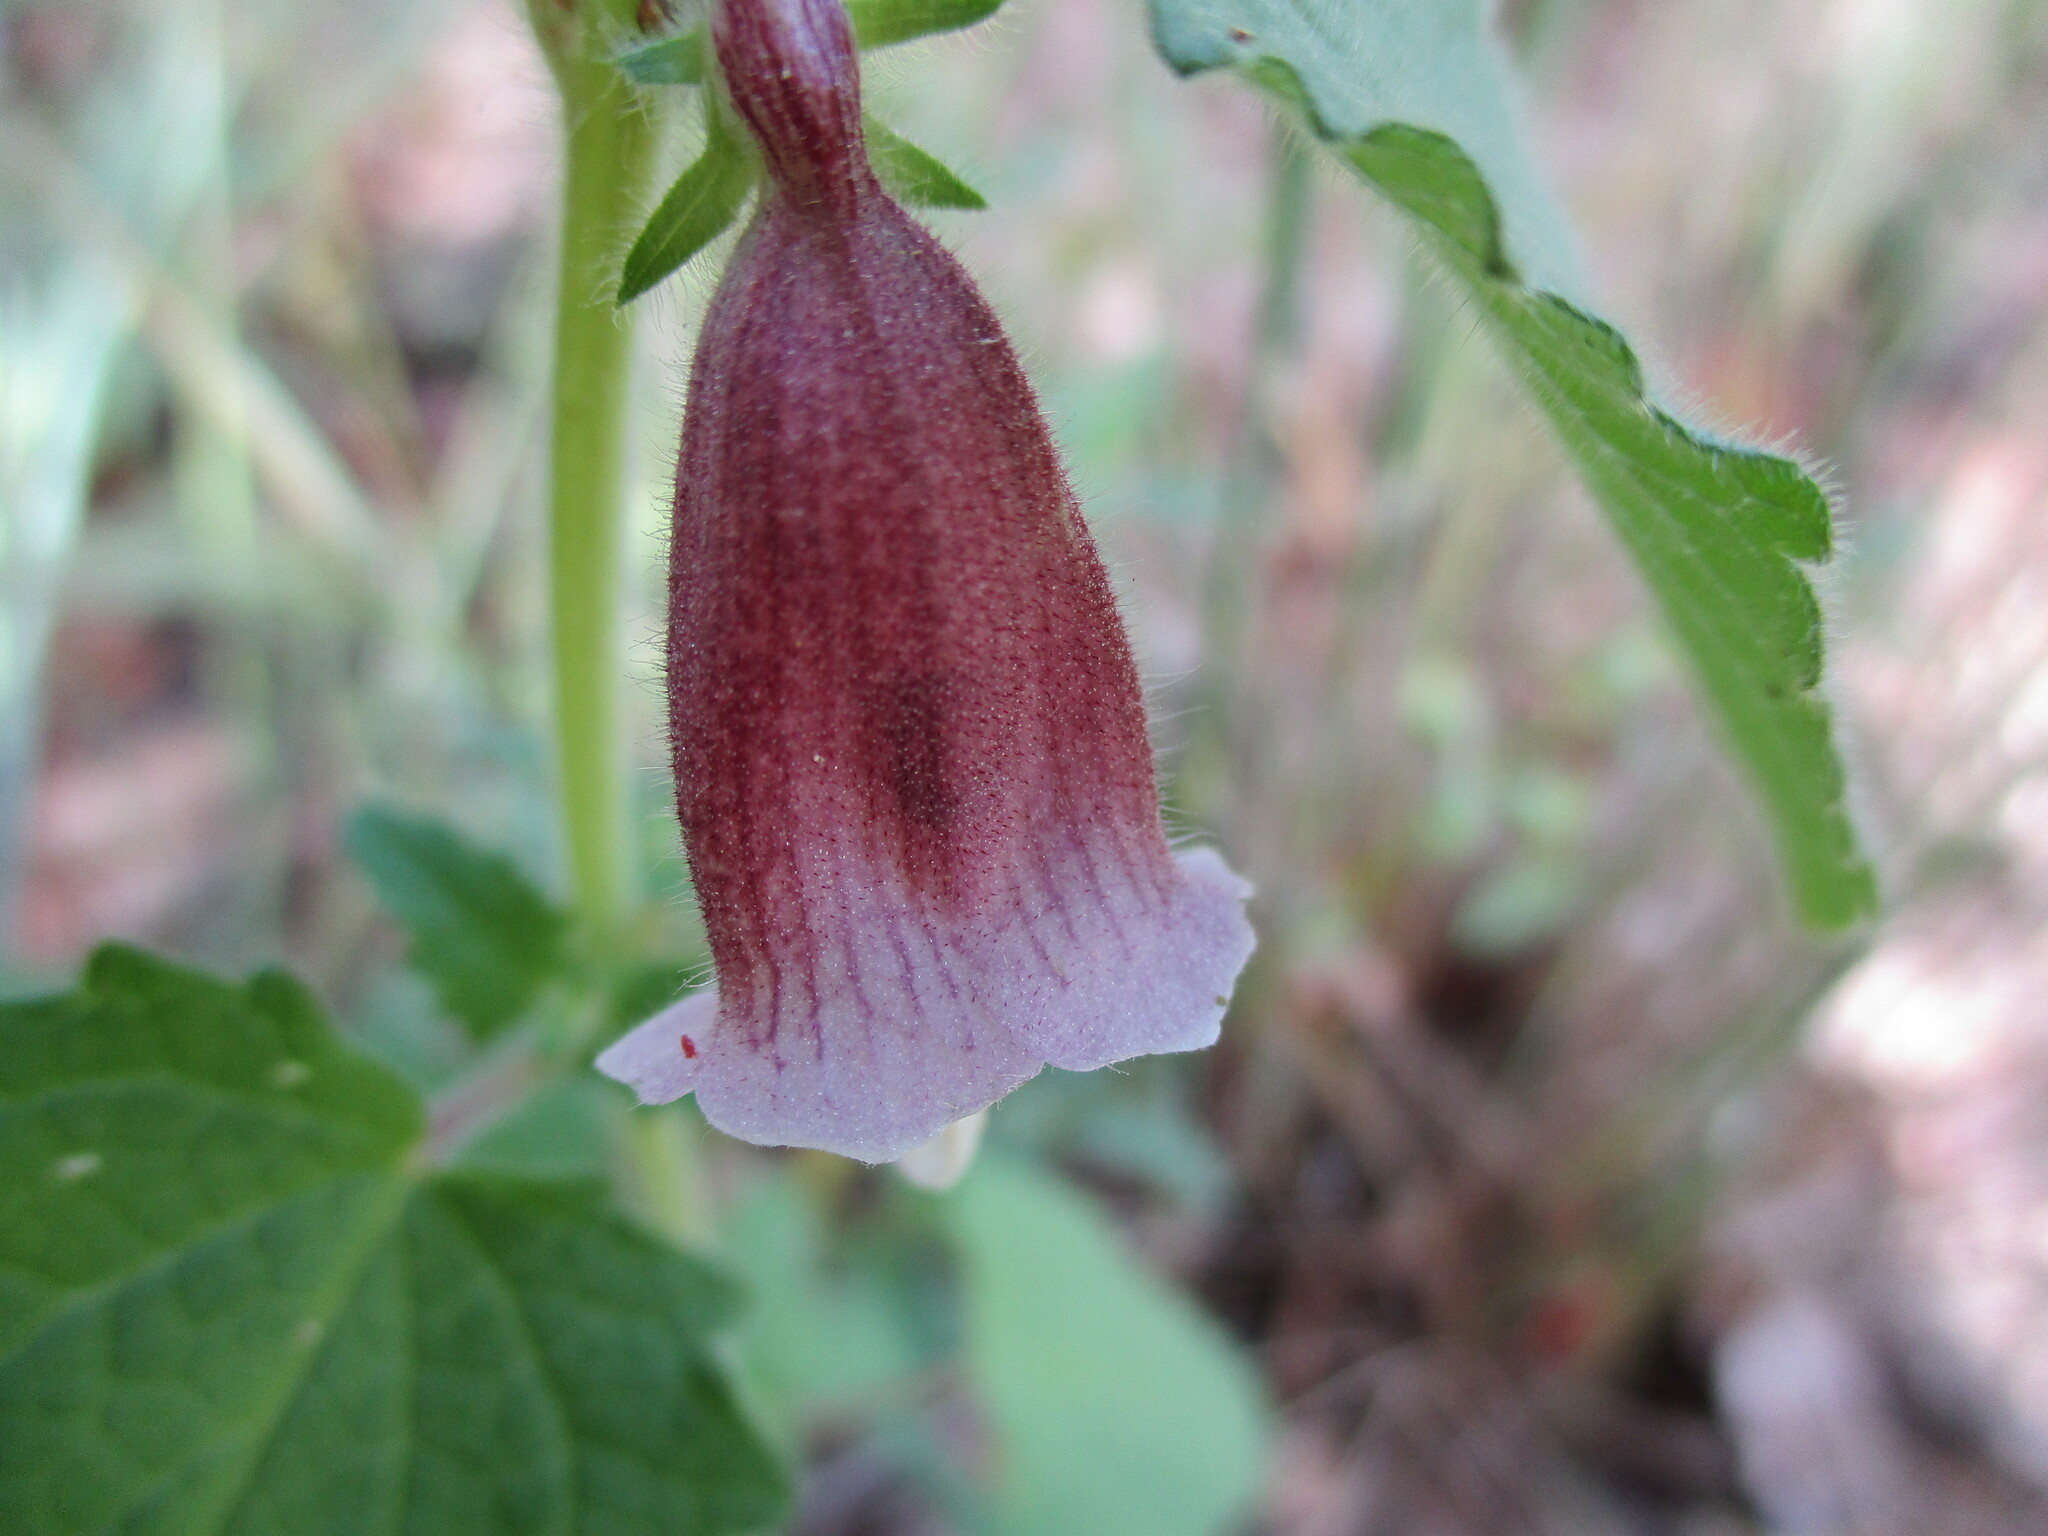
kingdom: Plantae
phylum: Tracheophyta
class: Magnoliopsida
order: Lamiales
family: Pedaliaceae
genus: Sesamum
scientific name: Sesamum sesamoides
